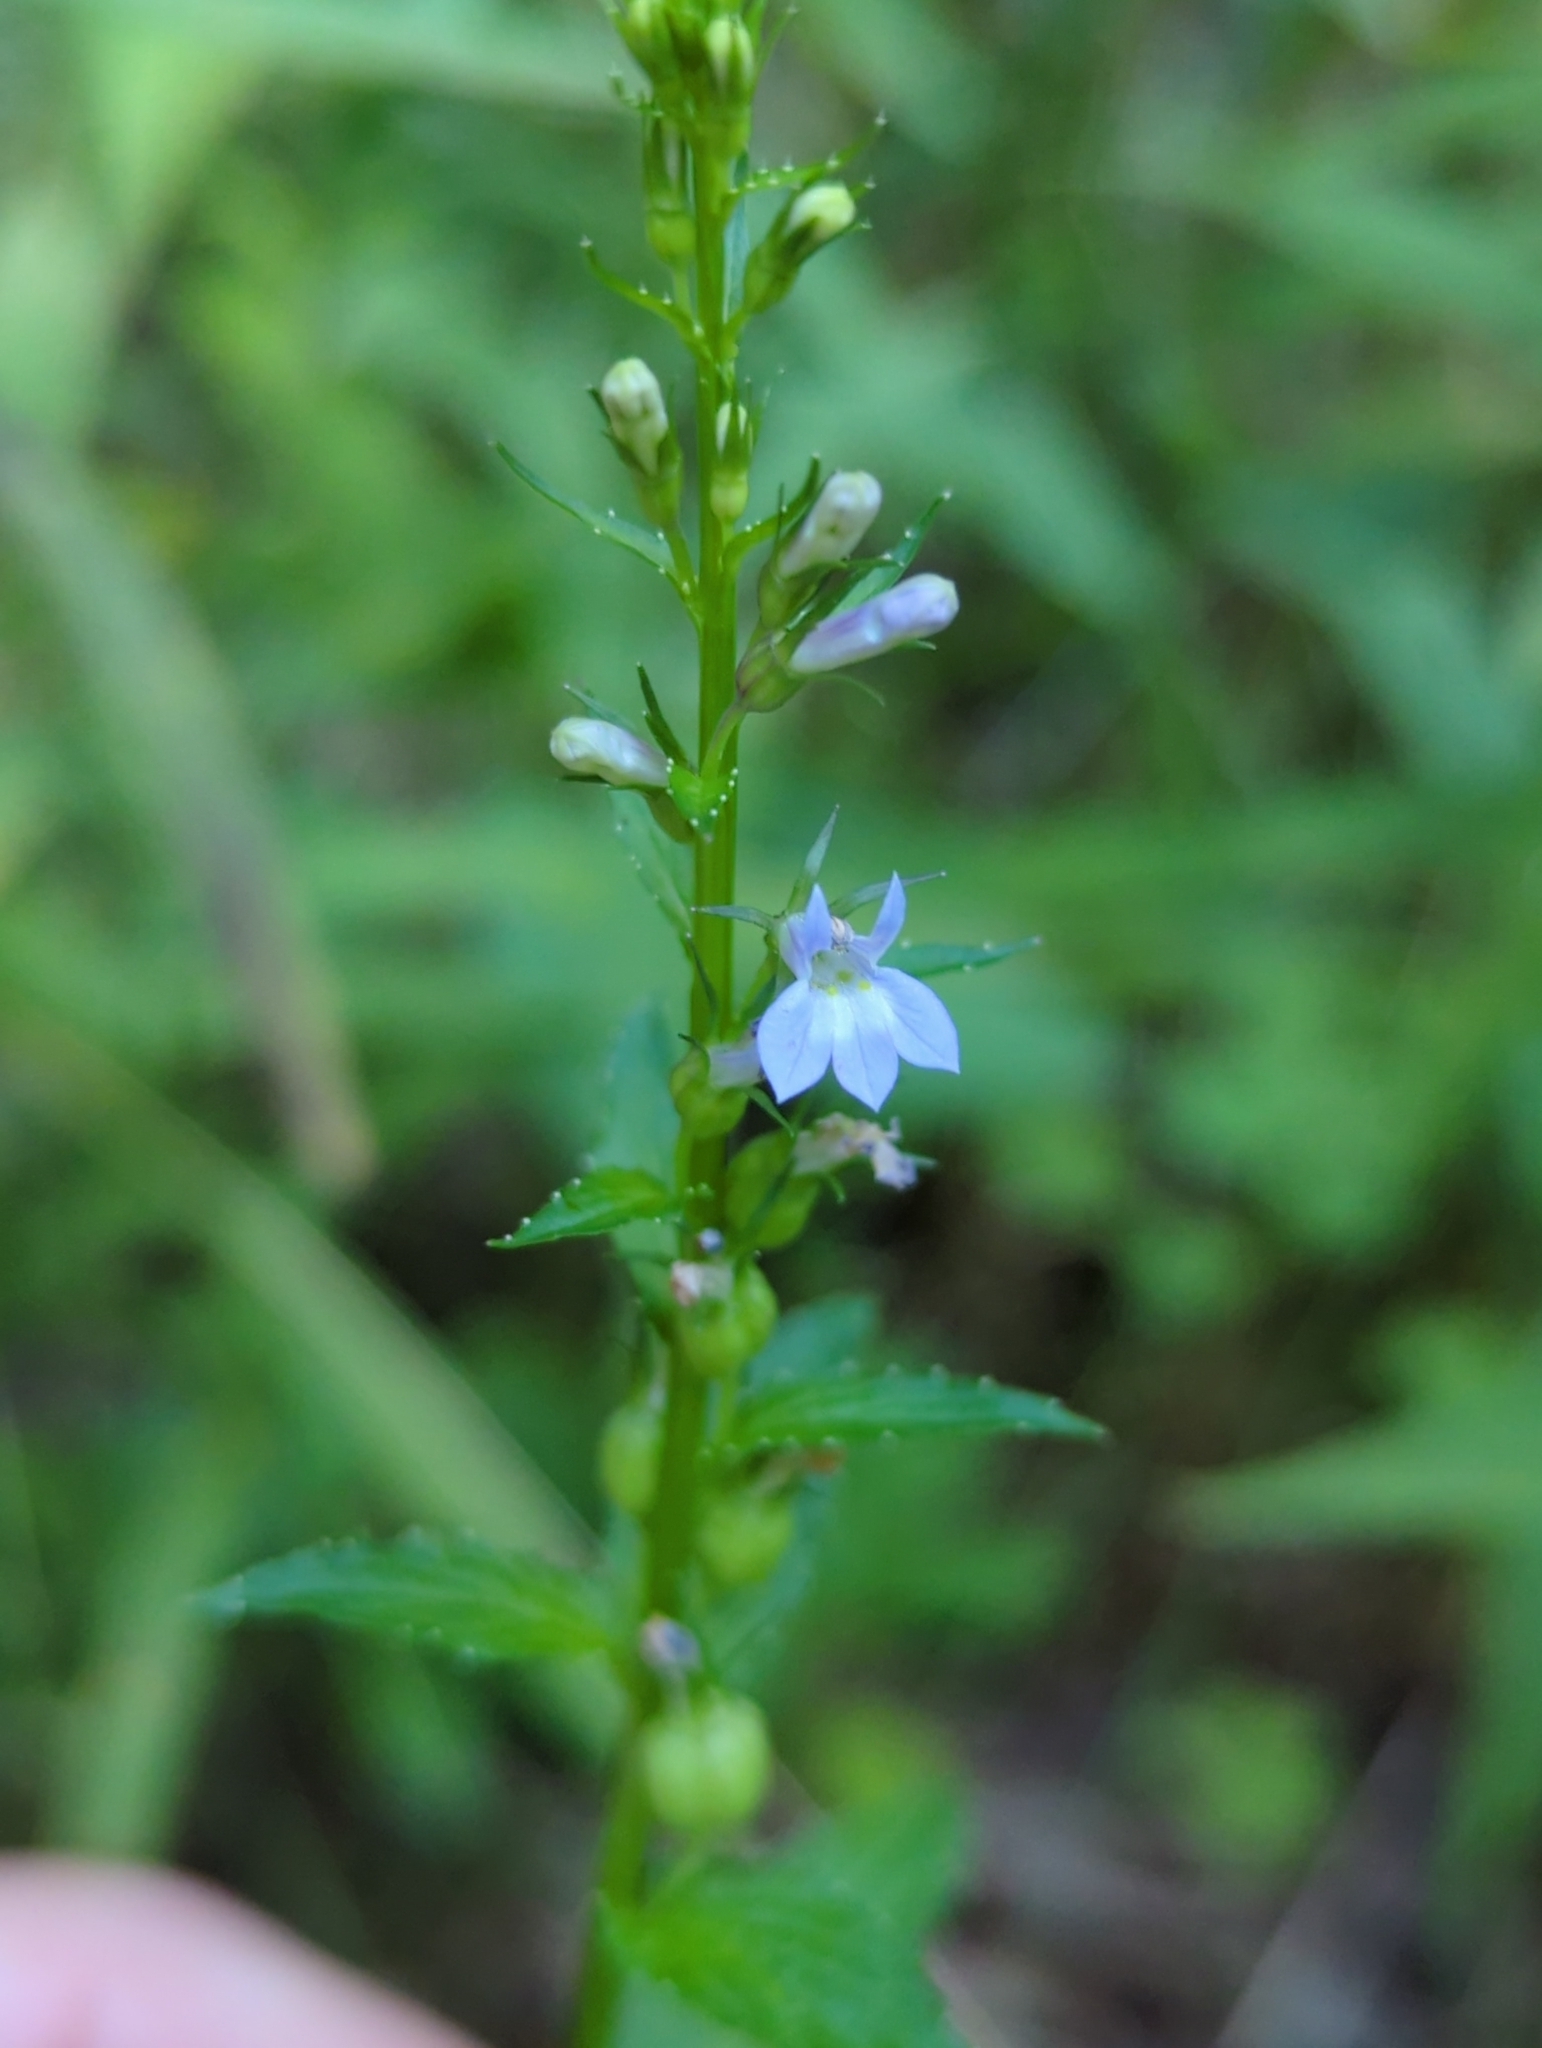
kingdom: Plantae
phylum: Tracheophyta
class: Magnoliopsida
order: Asterales
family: Campanulaceae
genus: Lobelia
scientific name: Lobelia inflata
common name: Indian tobacco
